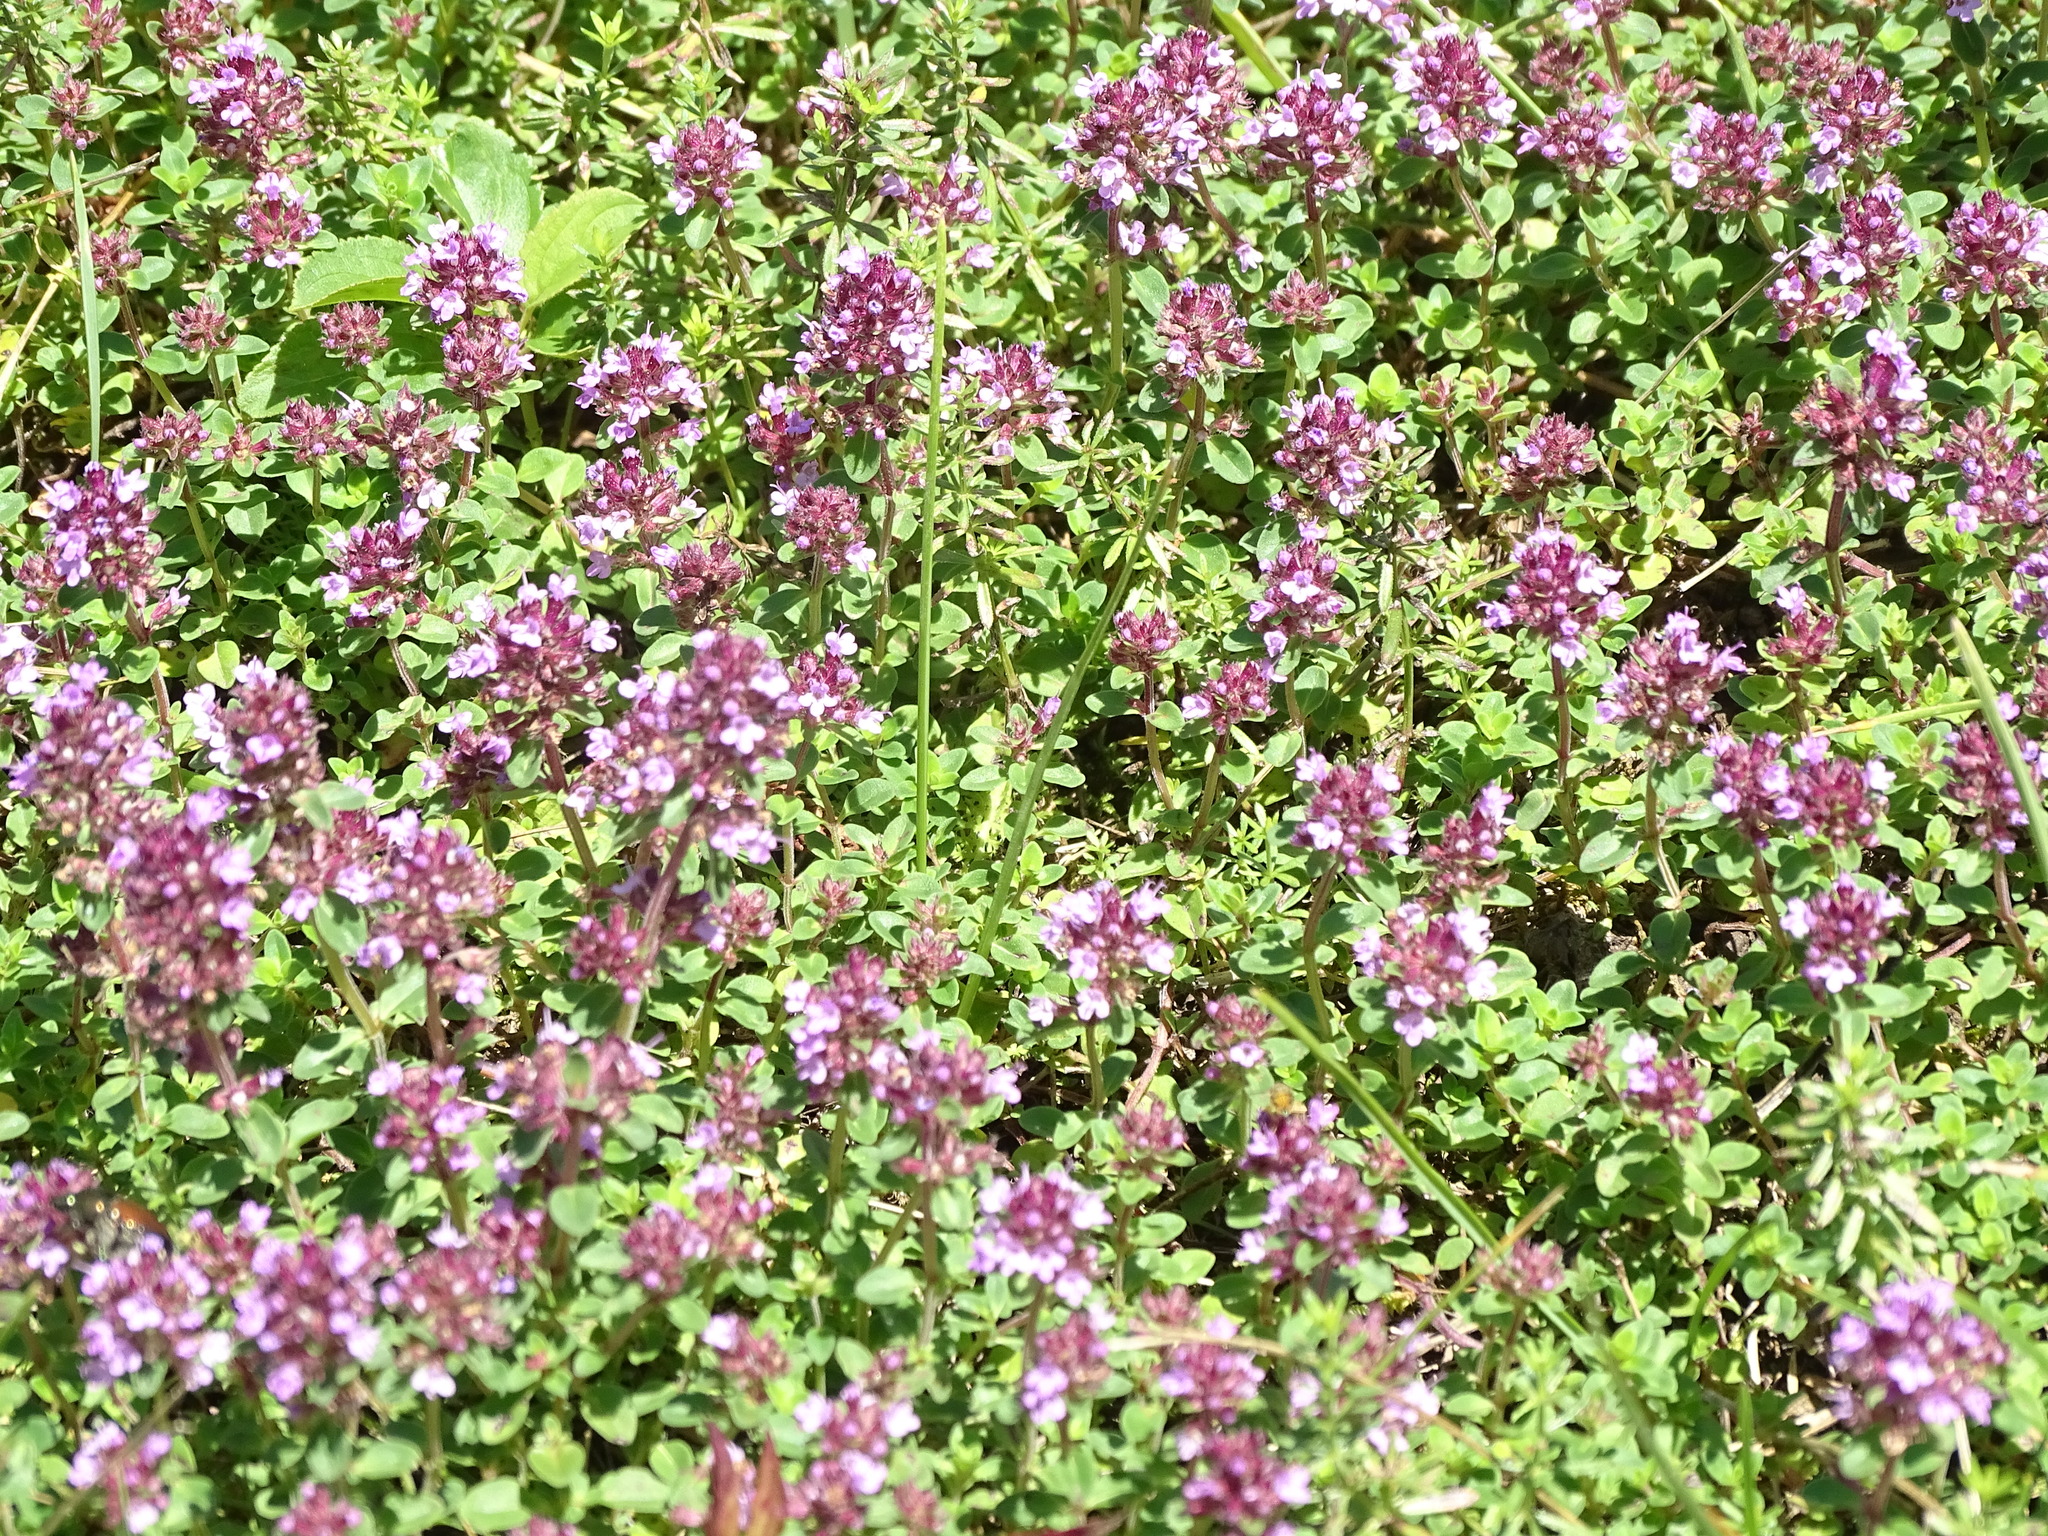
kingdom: Plantae
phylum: Tracheophyta
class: Magnoliopsida
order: Lamiales
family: Lamiaceae
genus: Thymus
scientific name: Thymus pulegioides
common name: Large thyme
